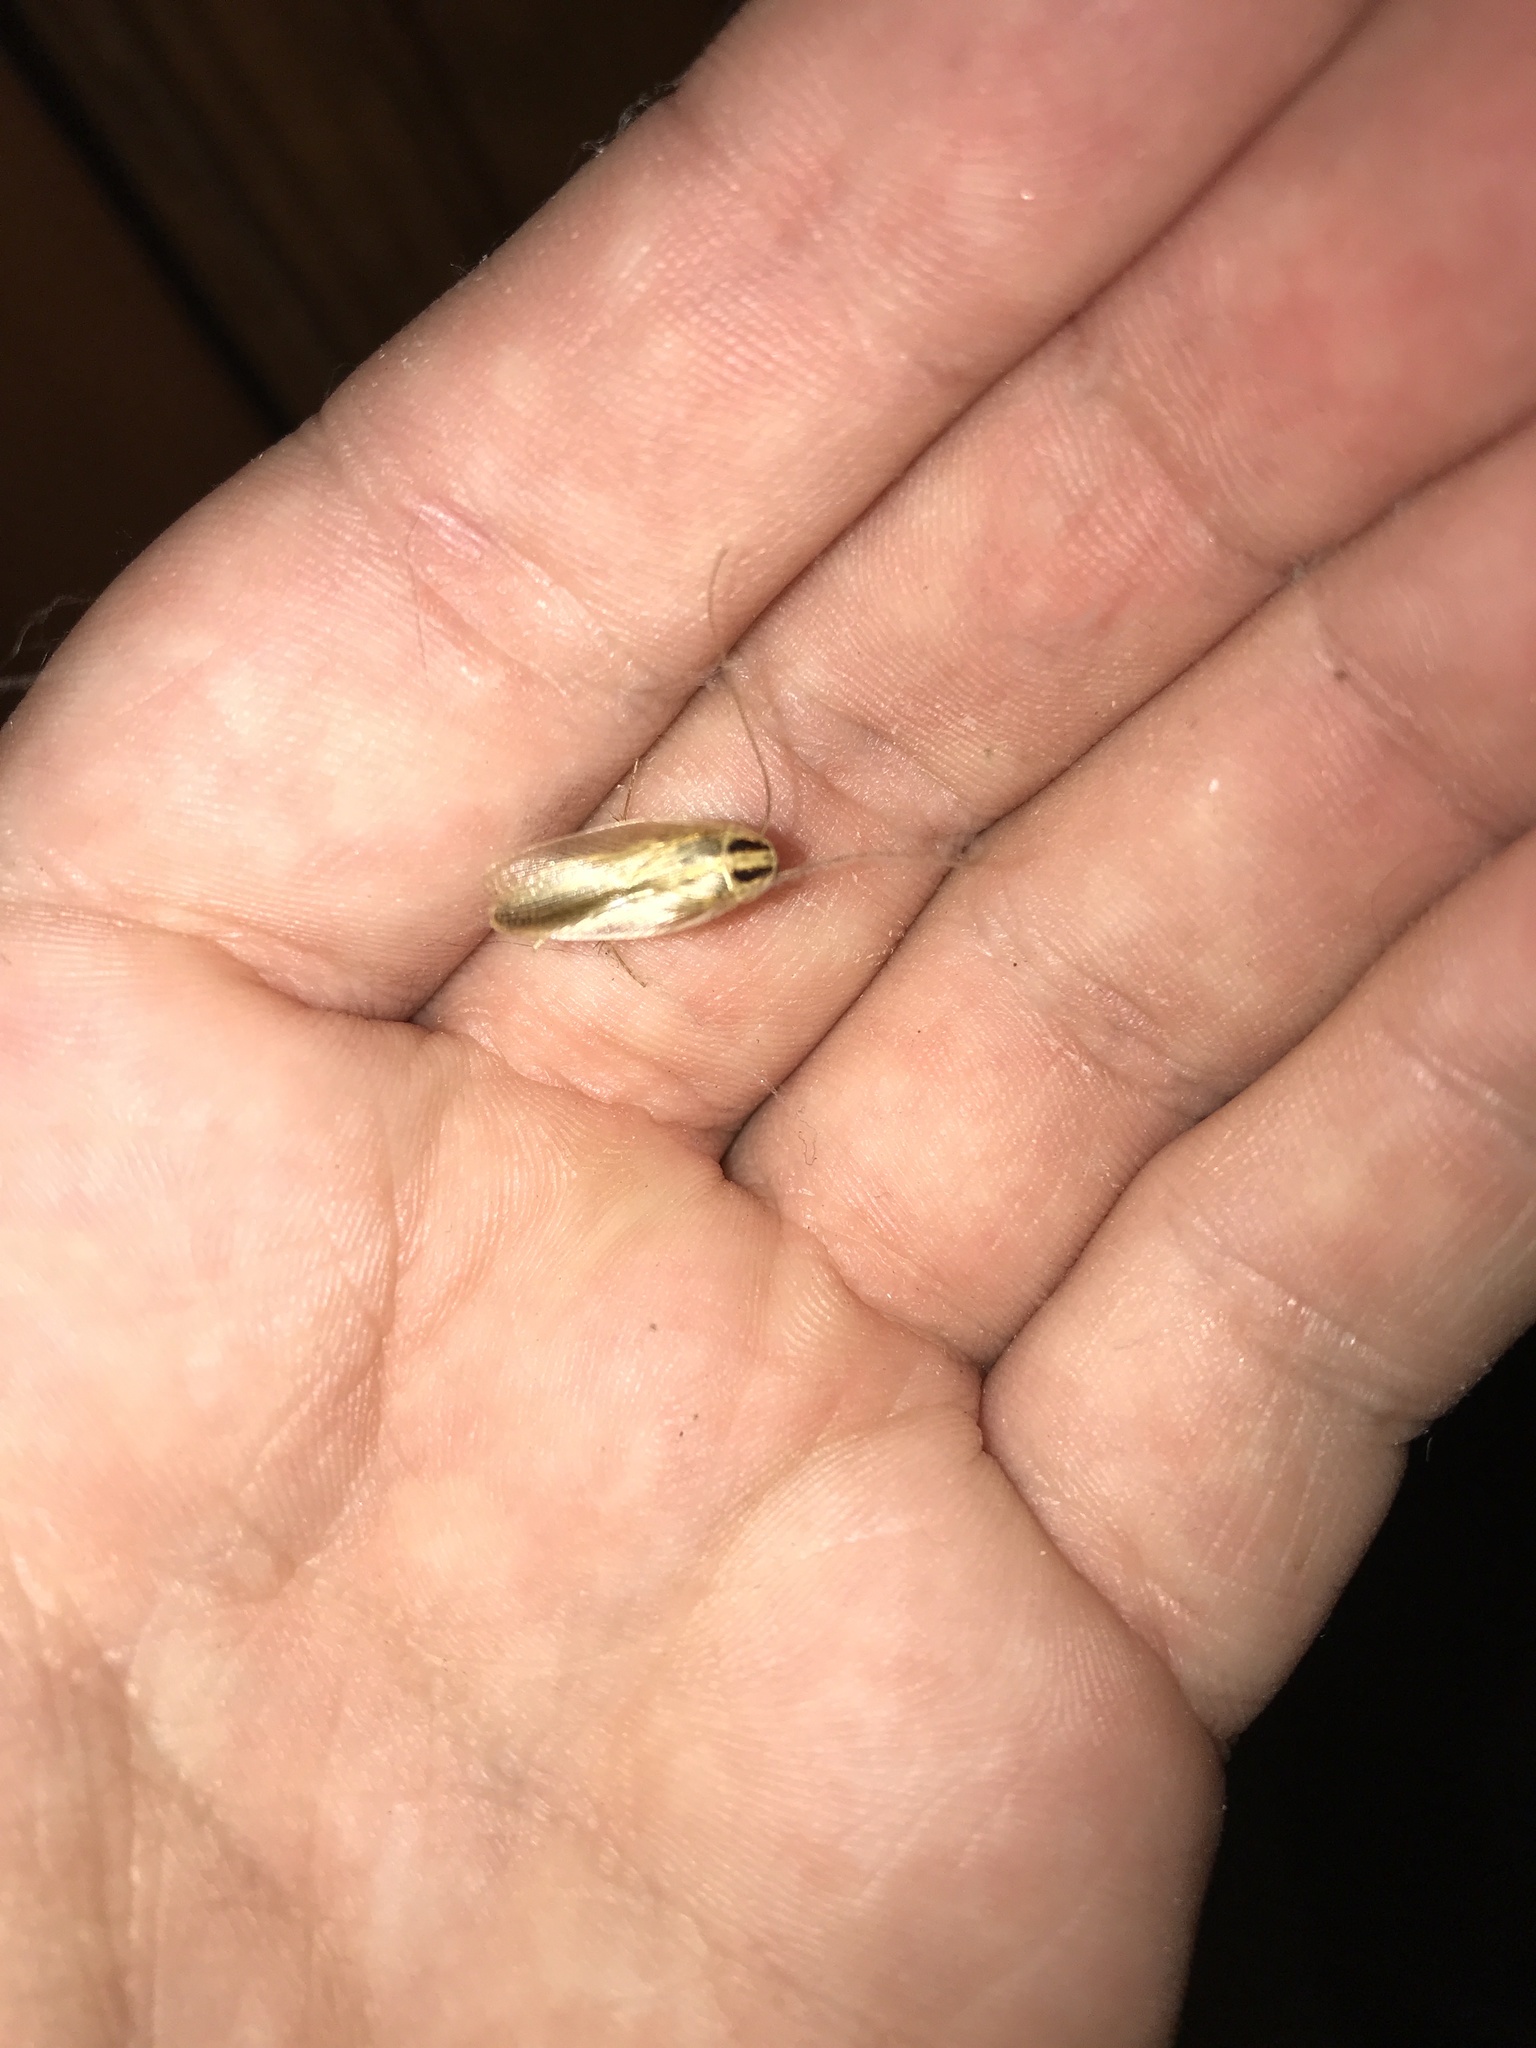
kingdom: Animalia
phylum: Arthropoda
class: Insecta
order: Blattodea
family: Ectobiidae
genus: Blattella
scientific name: Blattella germanica
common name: German cockroach
